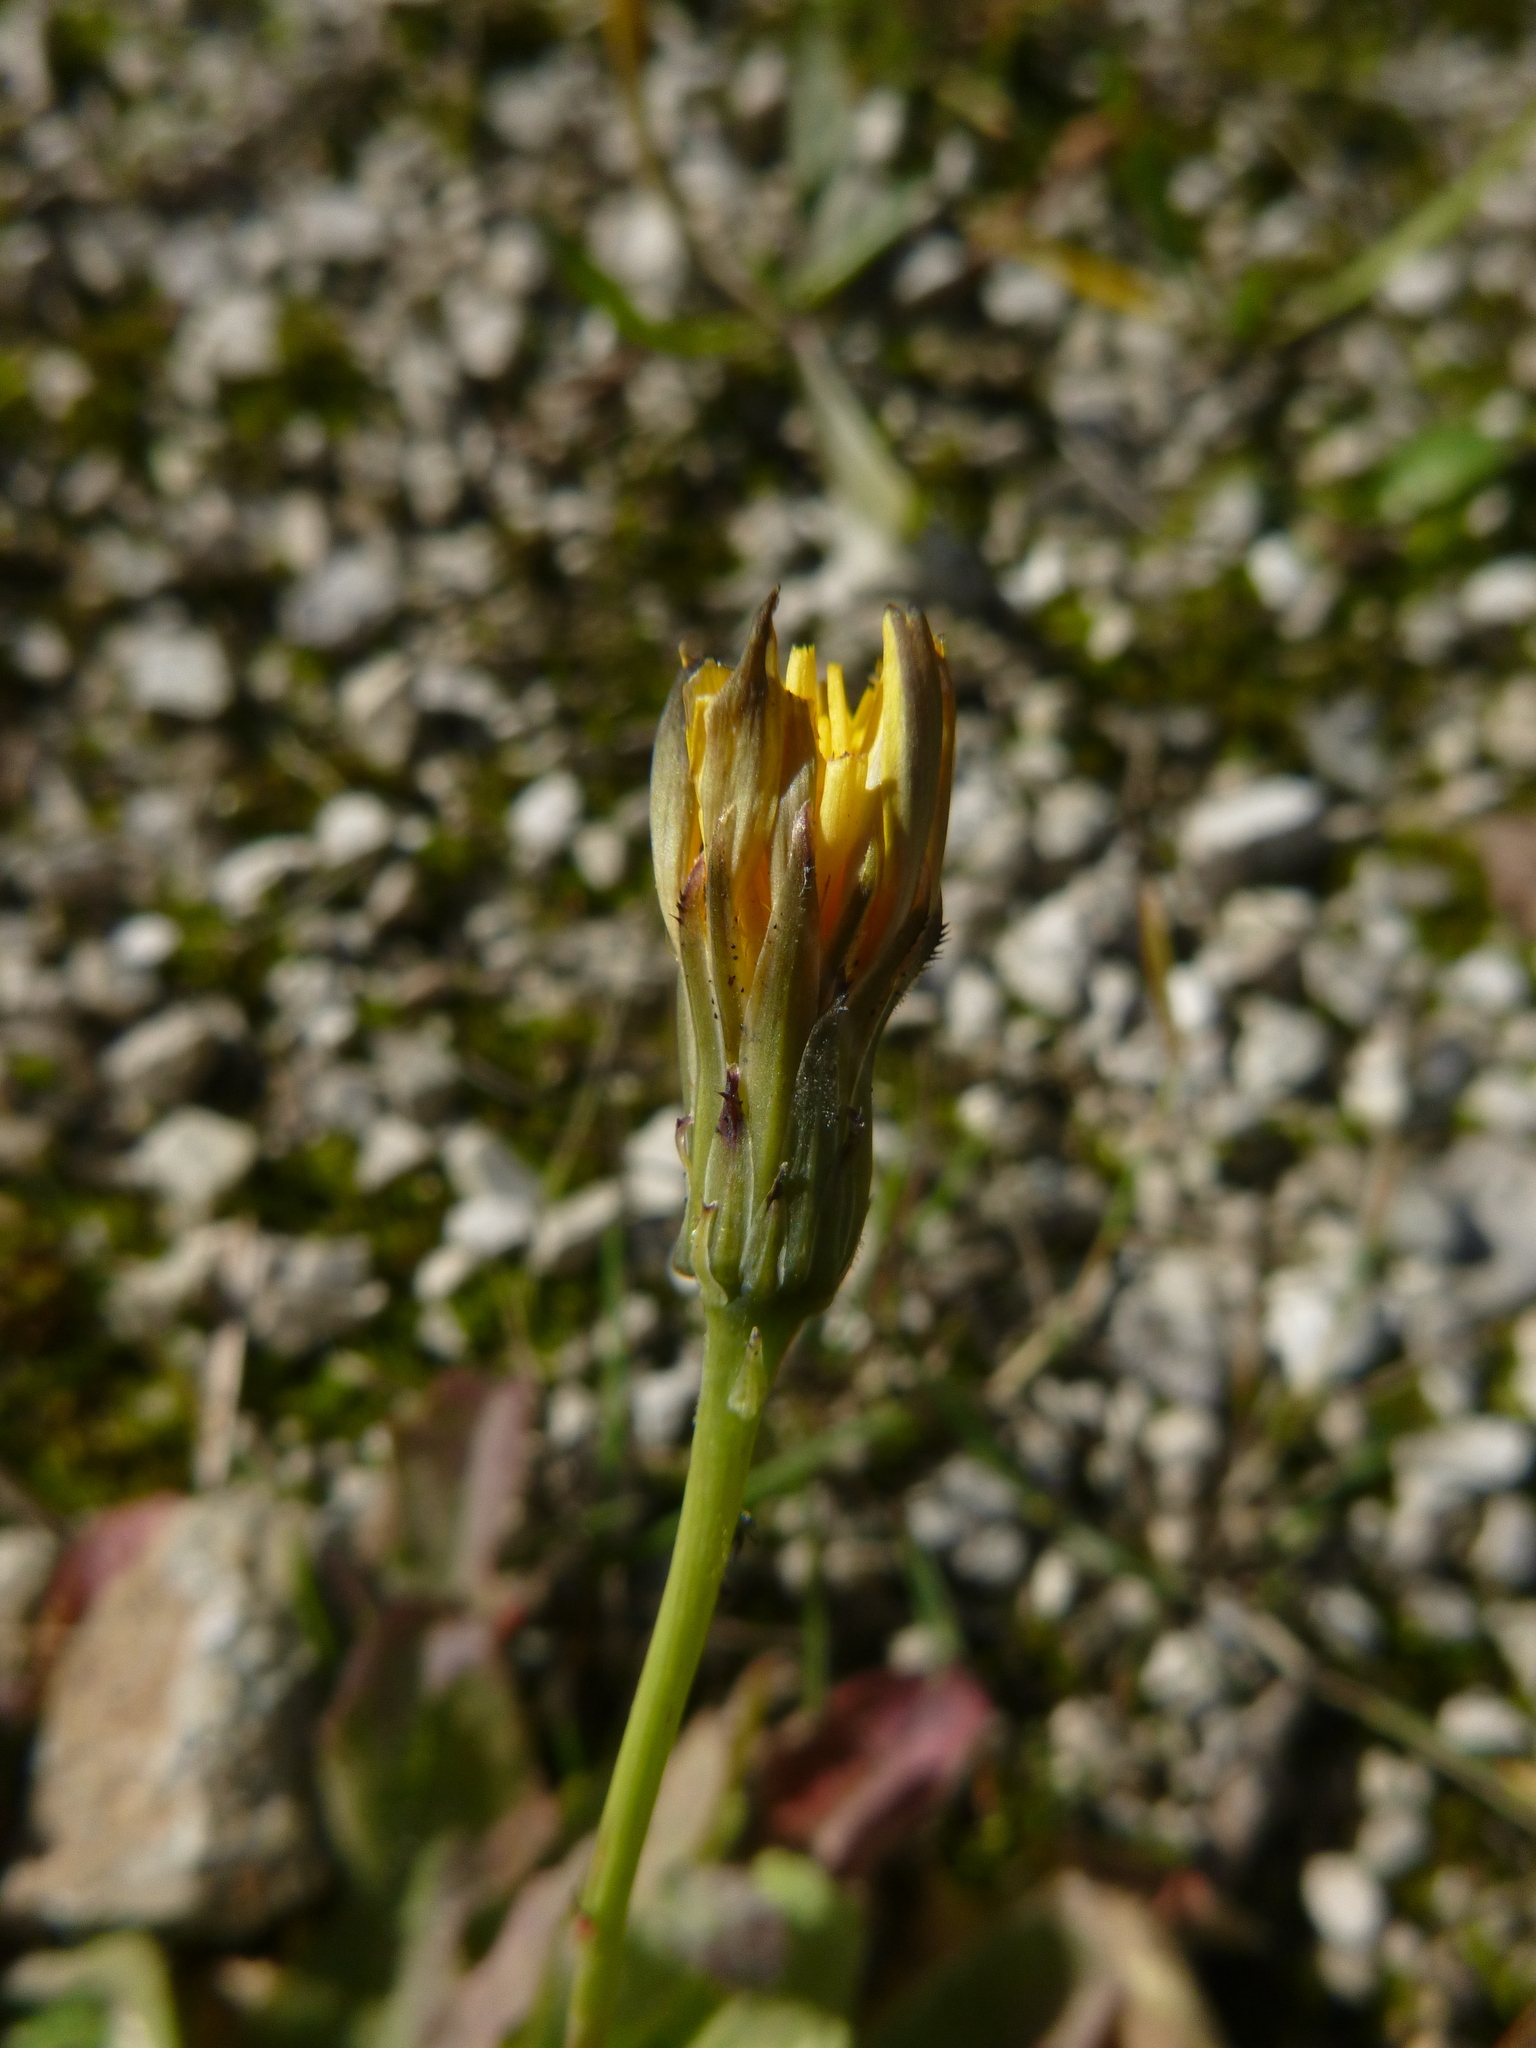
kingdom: Plantae
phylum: Tracheophyta
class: Magnoliopsida
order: Asterales
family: Asteraceae
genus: Hypochaeris
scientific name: Hypochaeris radicata
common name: Flatweed
